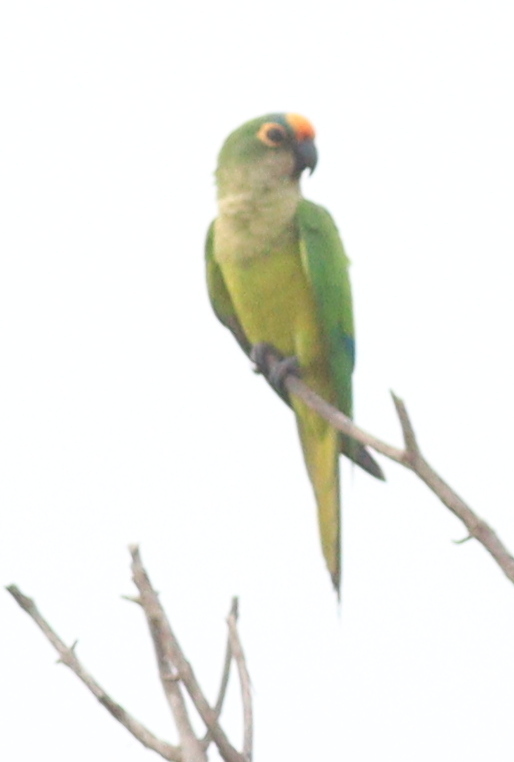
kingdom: Animalia
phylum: Chordata
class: Aves
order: Psittaciformes
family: Psittacidae
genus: Aratinga
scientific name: Aratinga aurea
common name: Peach-fronted parakeet
